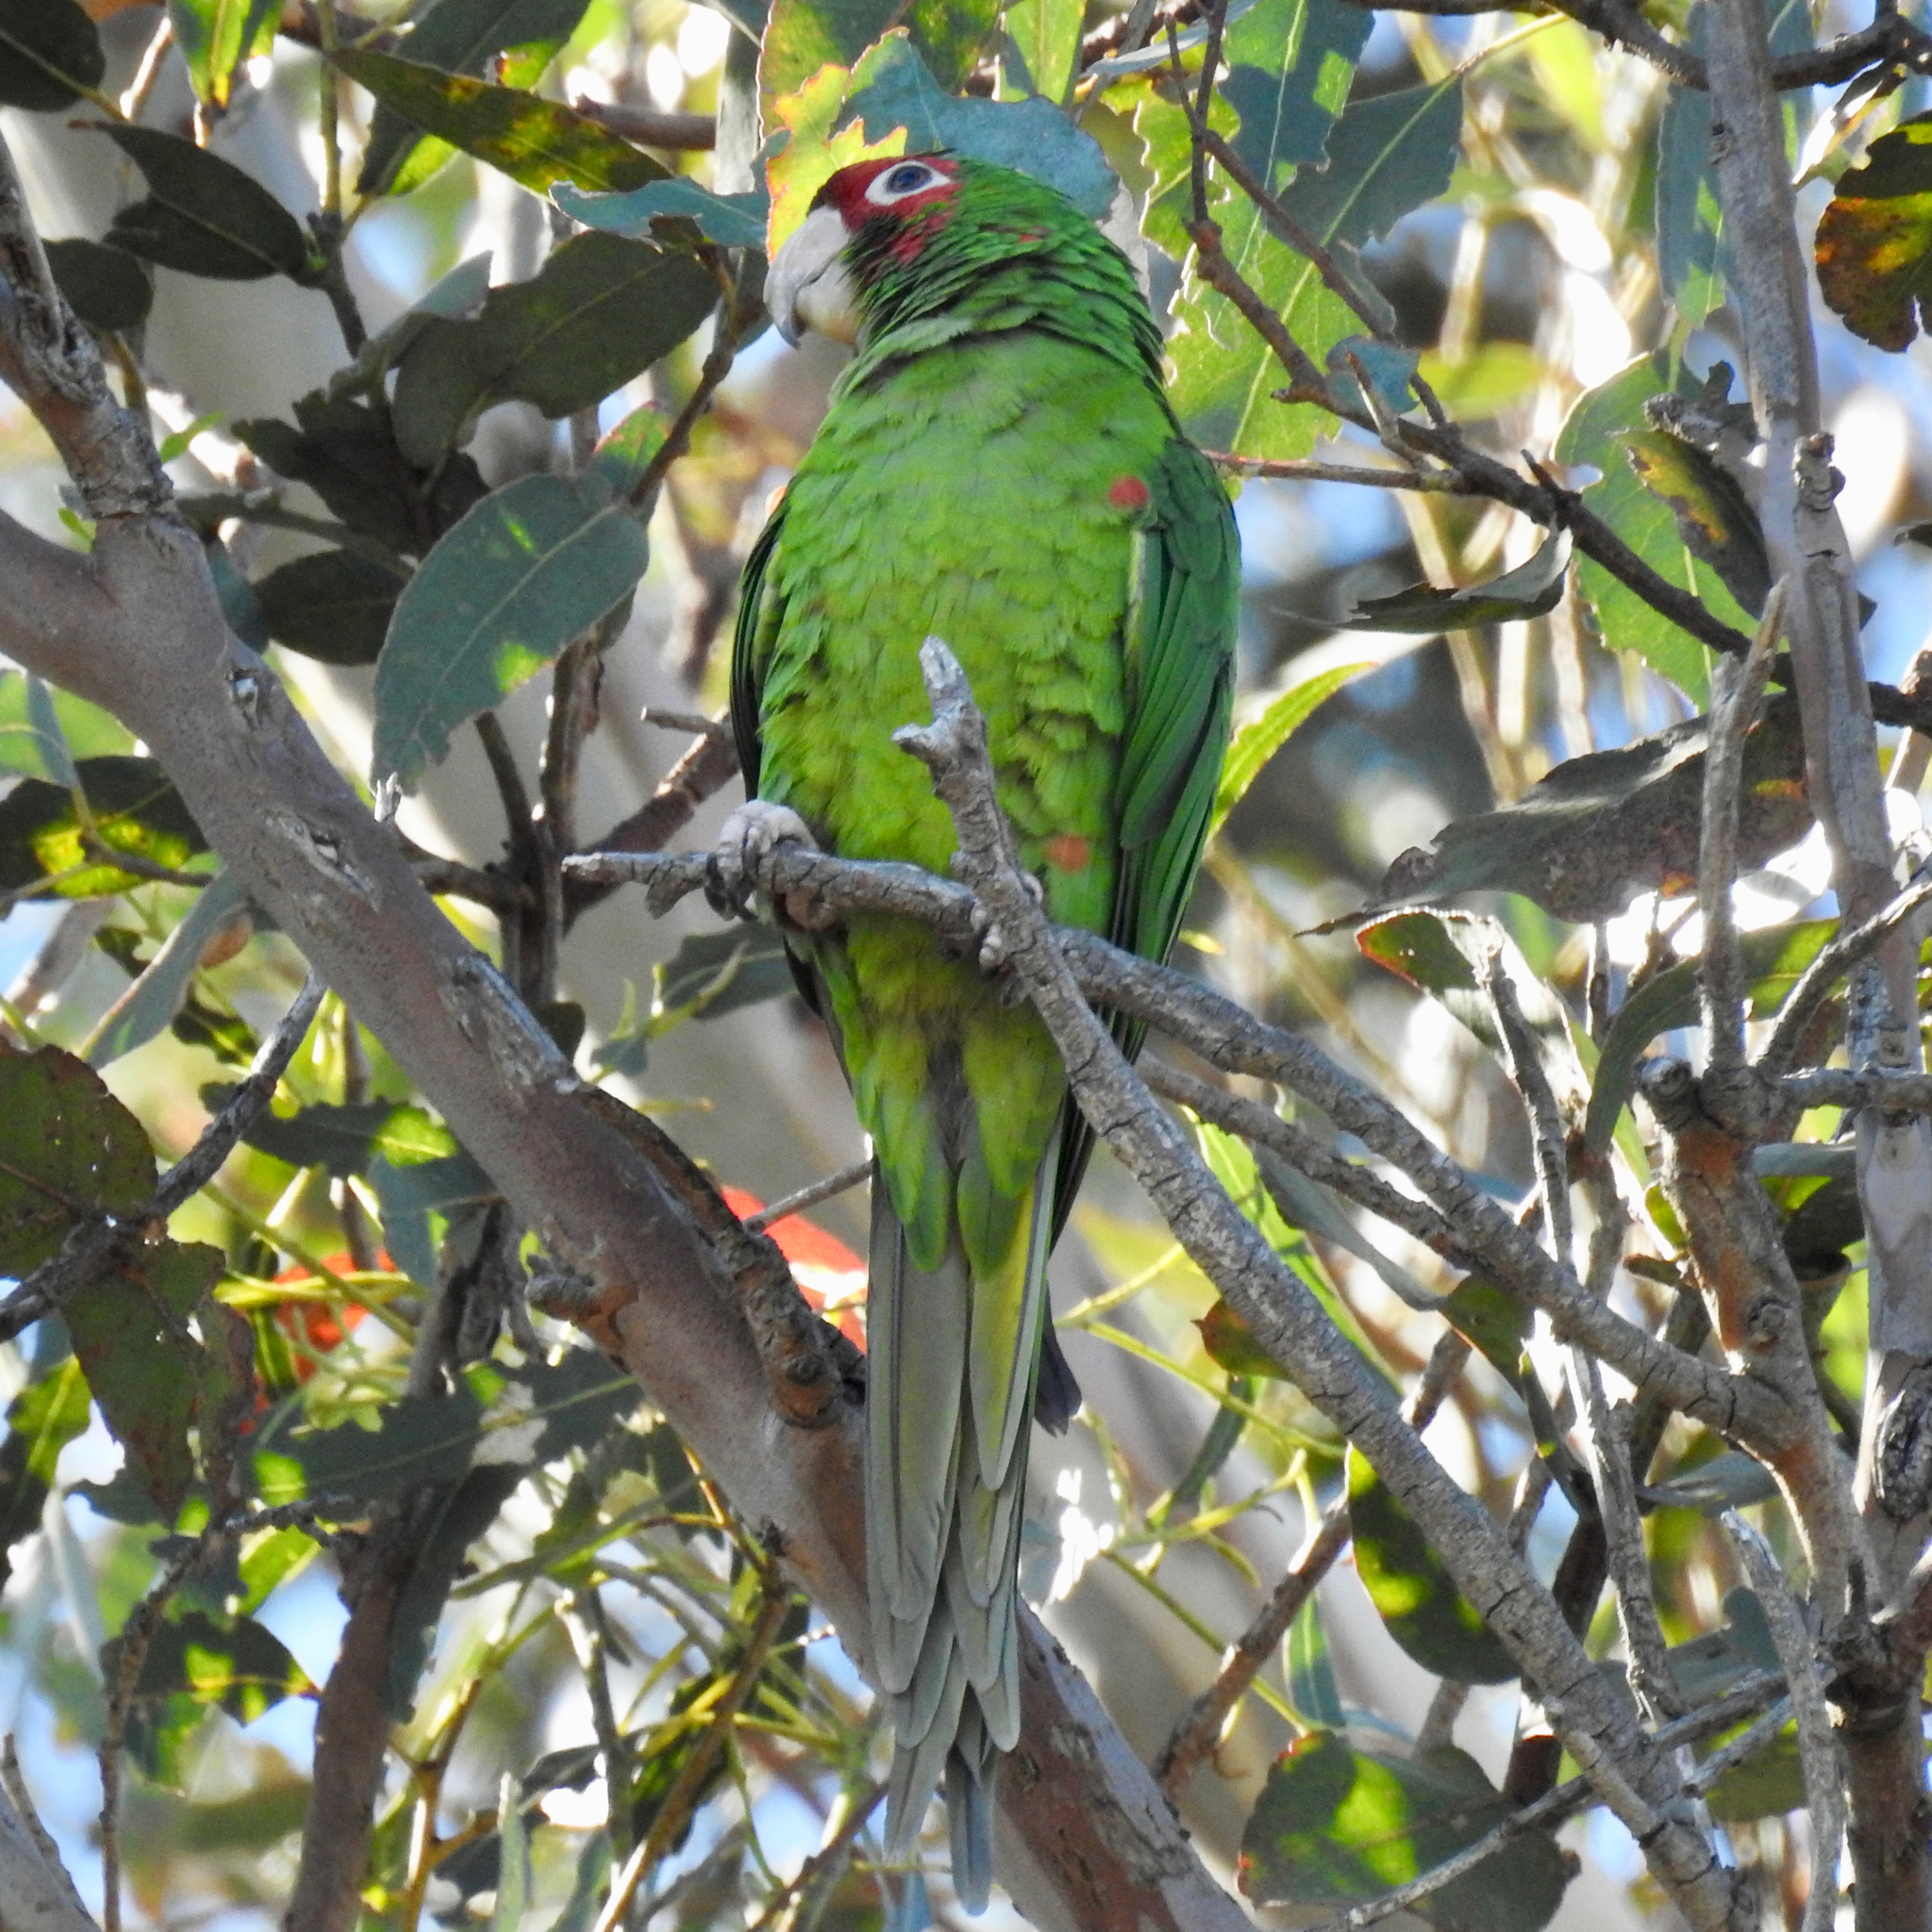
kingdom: Animalia
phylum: Chordata
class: Aves
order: Psittaciformes
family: Psittacidae
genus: Aratinga
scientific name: Aratinga mitrata
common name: Mitred parakeet
